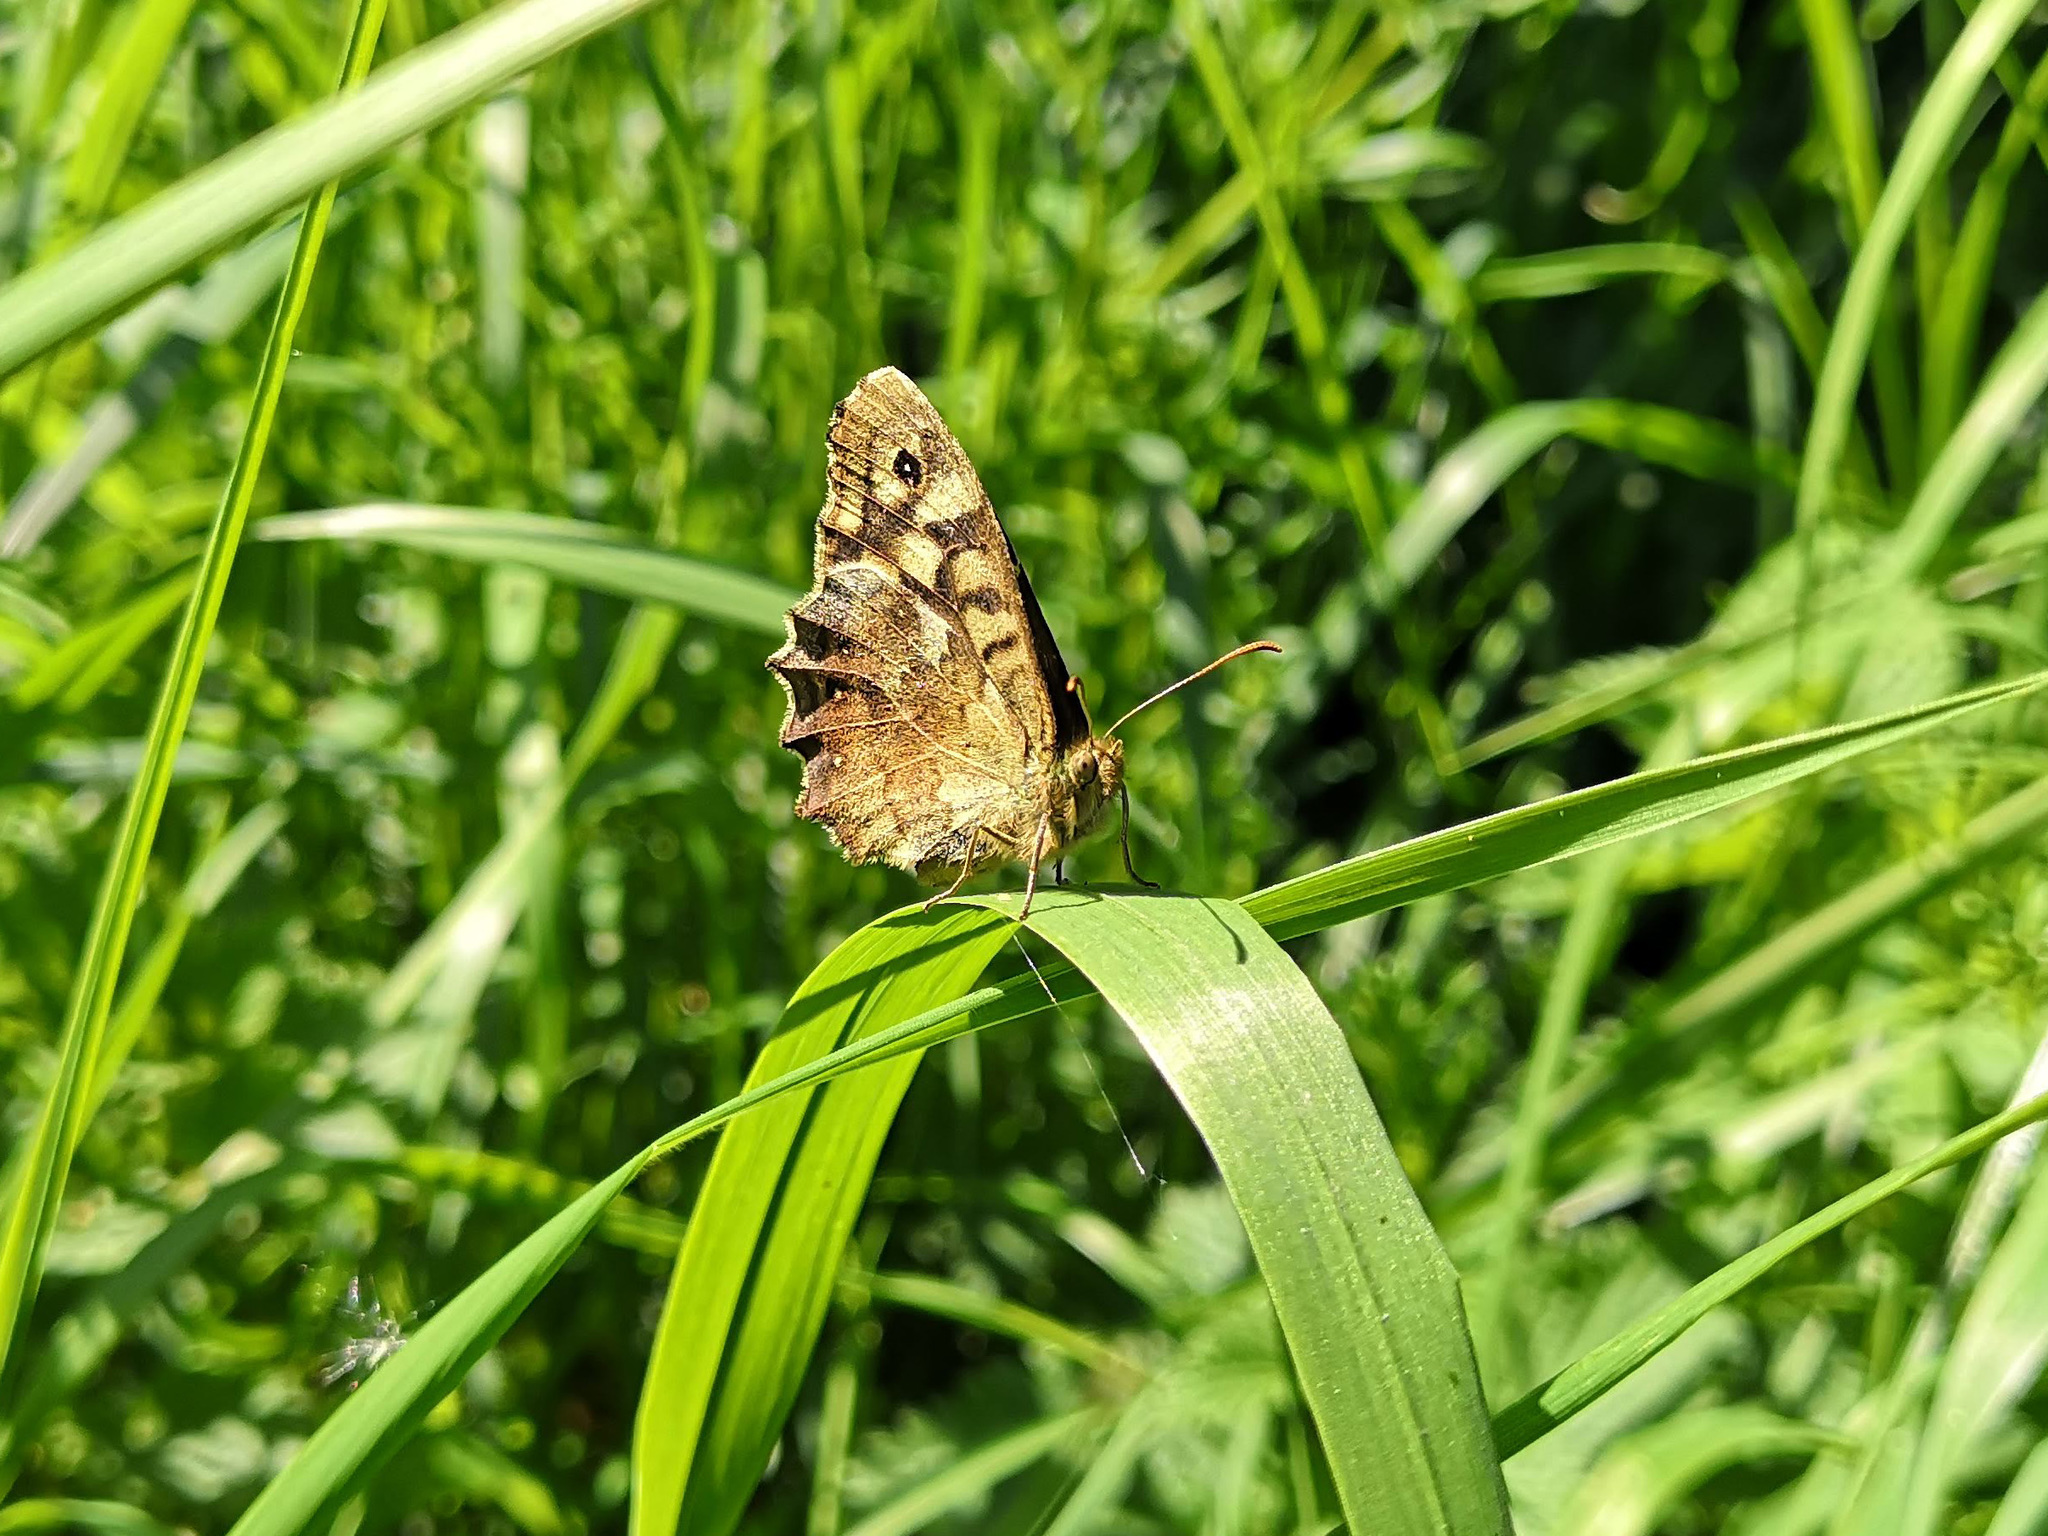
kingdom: Animalia
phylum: Arthropoda
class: Insecta
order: Lepidoptera
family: Nymphalidae
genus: Pararge
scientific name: Pararge aegeria
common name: Speckled wood
